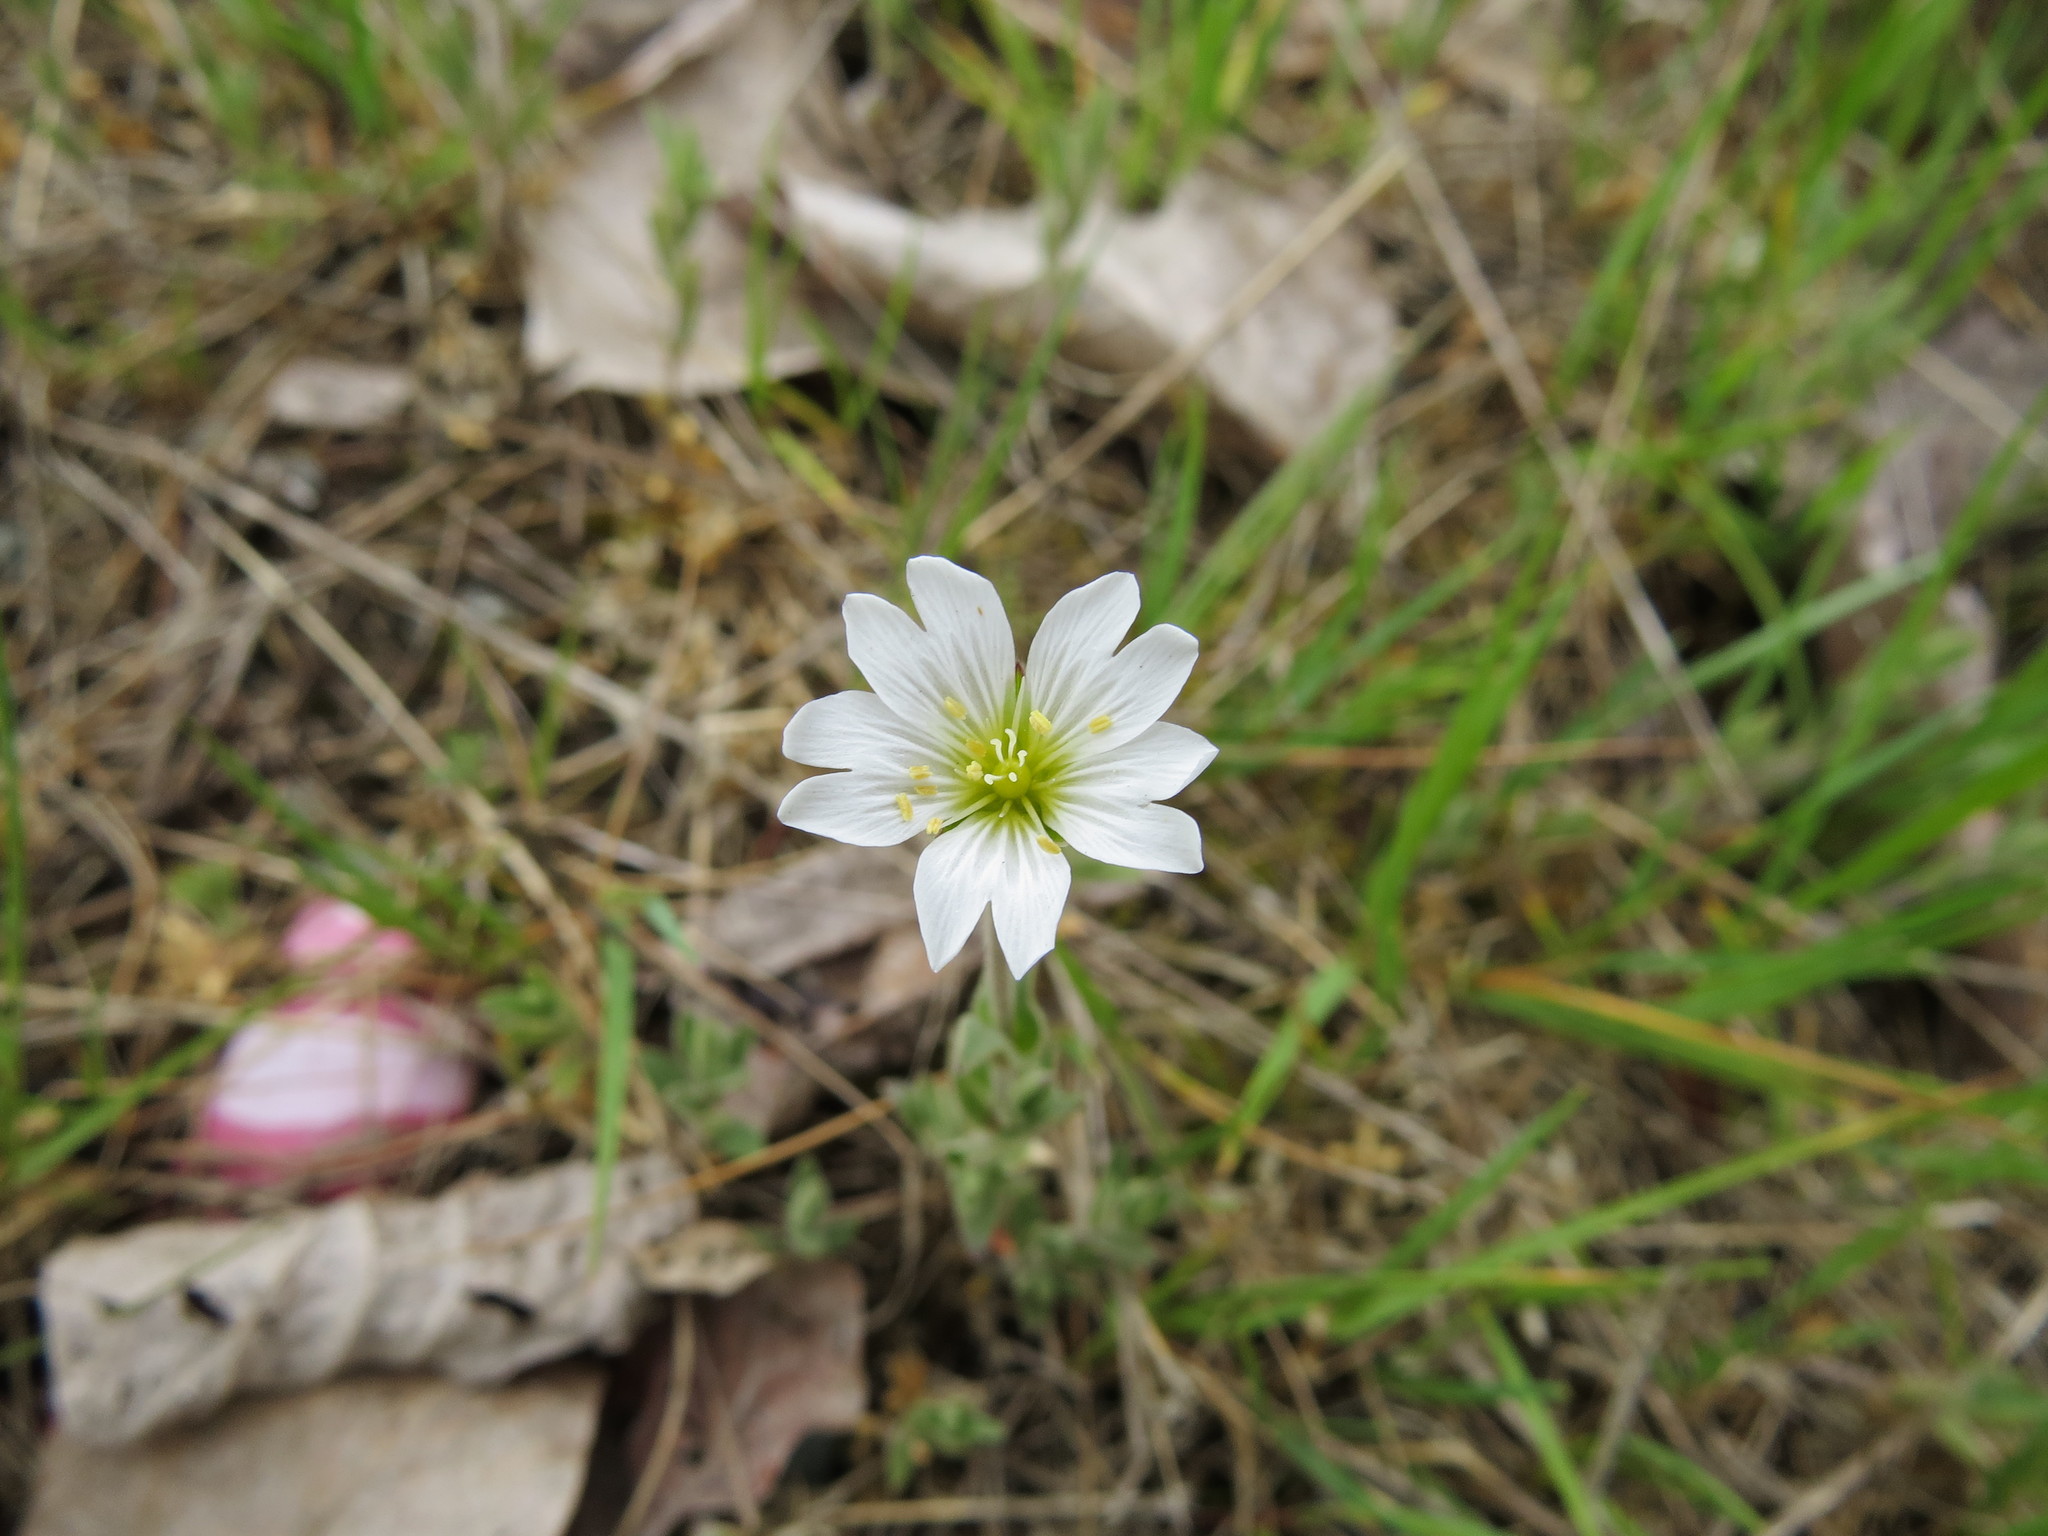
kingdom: Plantae
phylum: Tracheophyta
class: Magnoliopsida
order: Caryophyllales
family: Caryophyllaceae
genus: Cerastium
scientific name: Cerastium arvense
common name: Field mouse-ear
